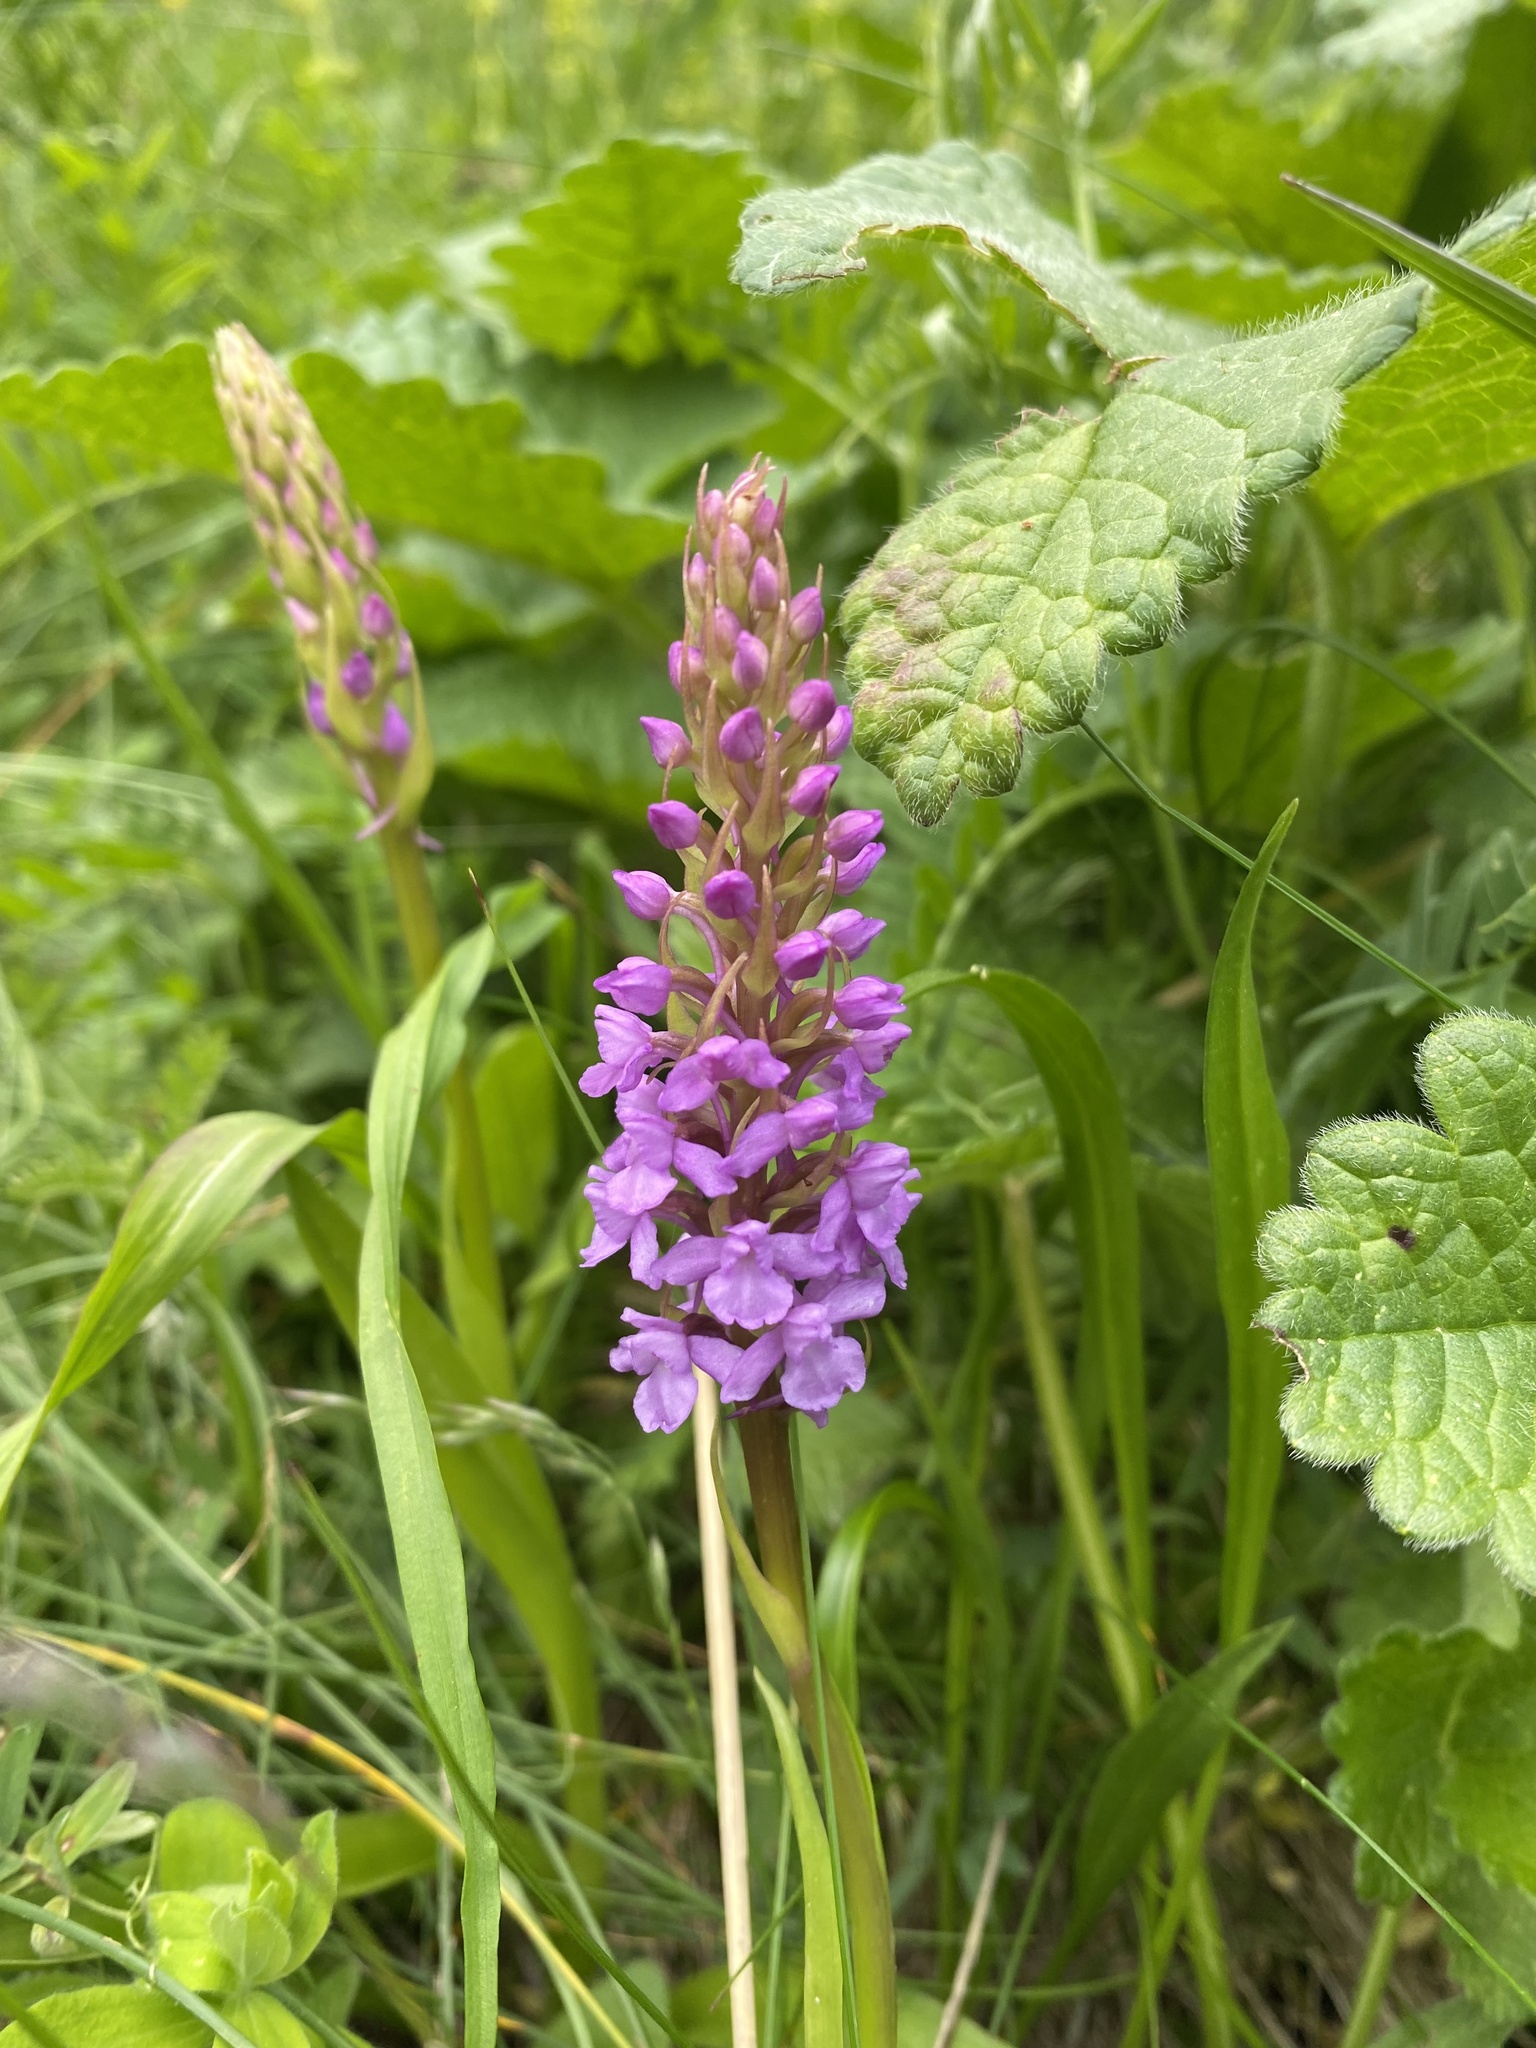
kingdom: Plantae
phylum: Tracheophyta
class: Liliopsida
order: Asparagales
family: Orchidaceae
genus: Gymnadenia
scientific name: Gymnadenia conopsea
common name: Fragrant orchid
